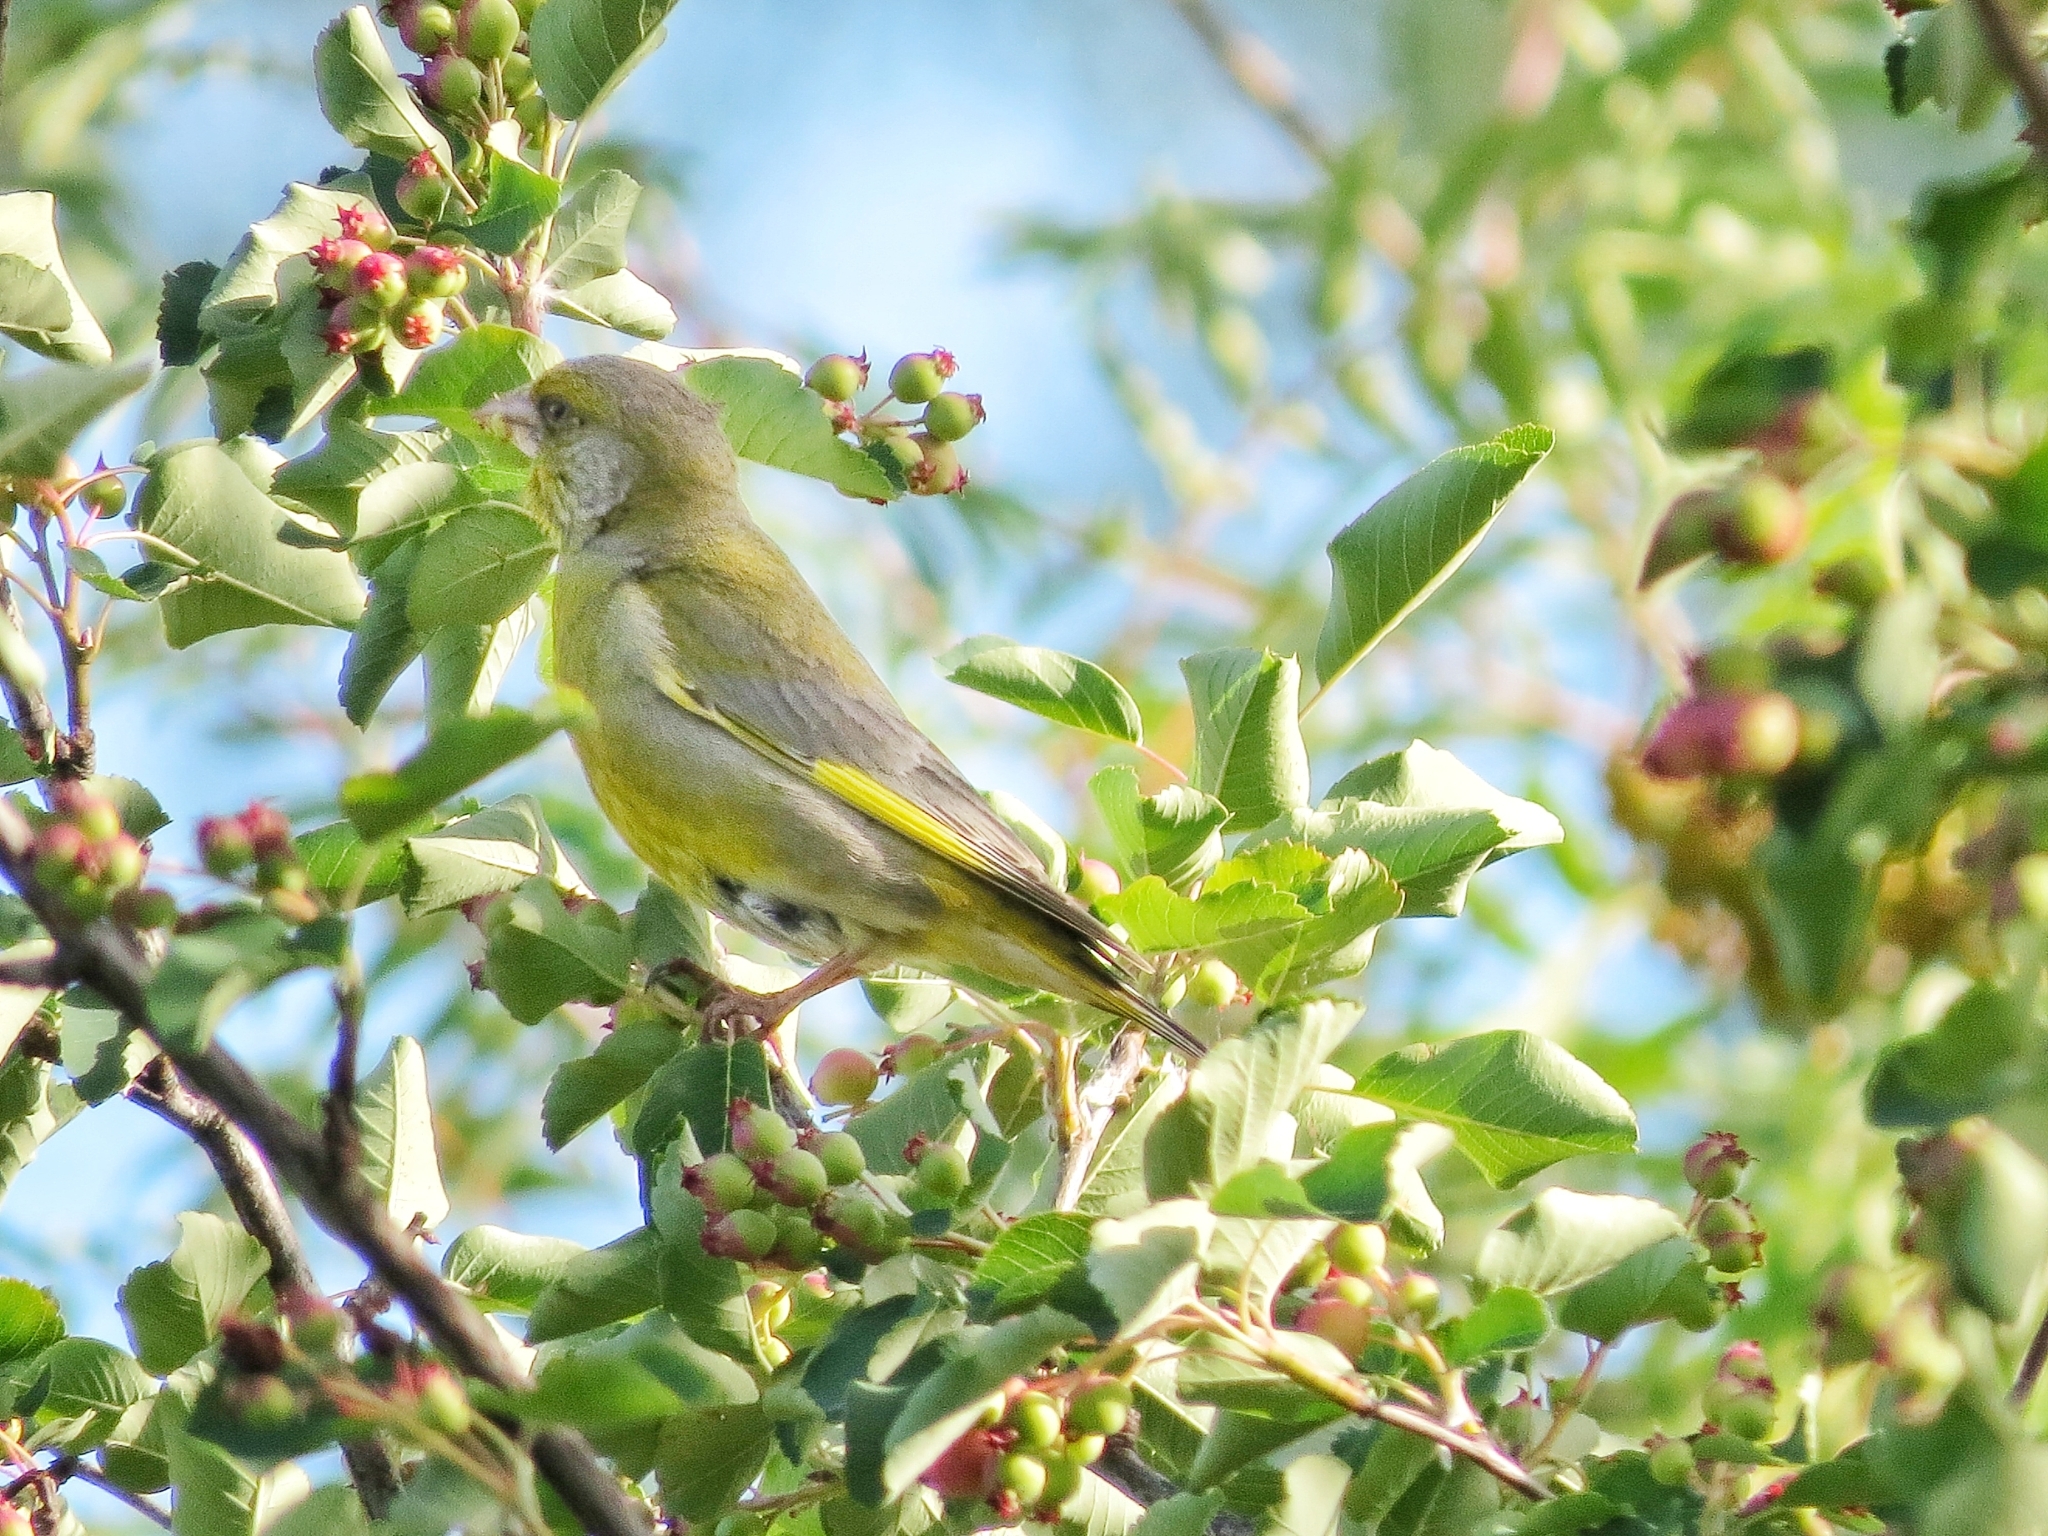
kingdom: Plantae
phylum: Tracheophyta
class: Liliopsida
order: Poales
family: Poaceae
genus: Chloris
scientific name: Chloris chloris
